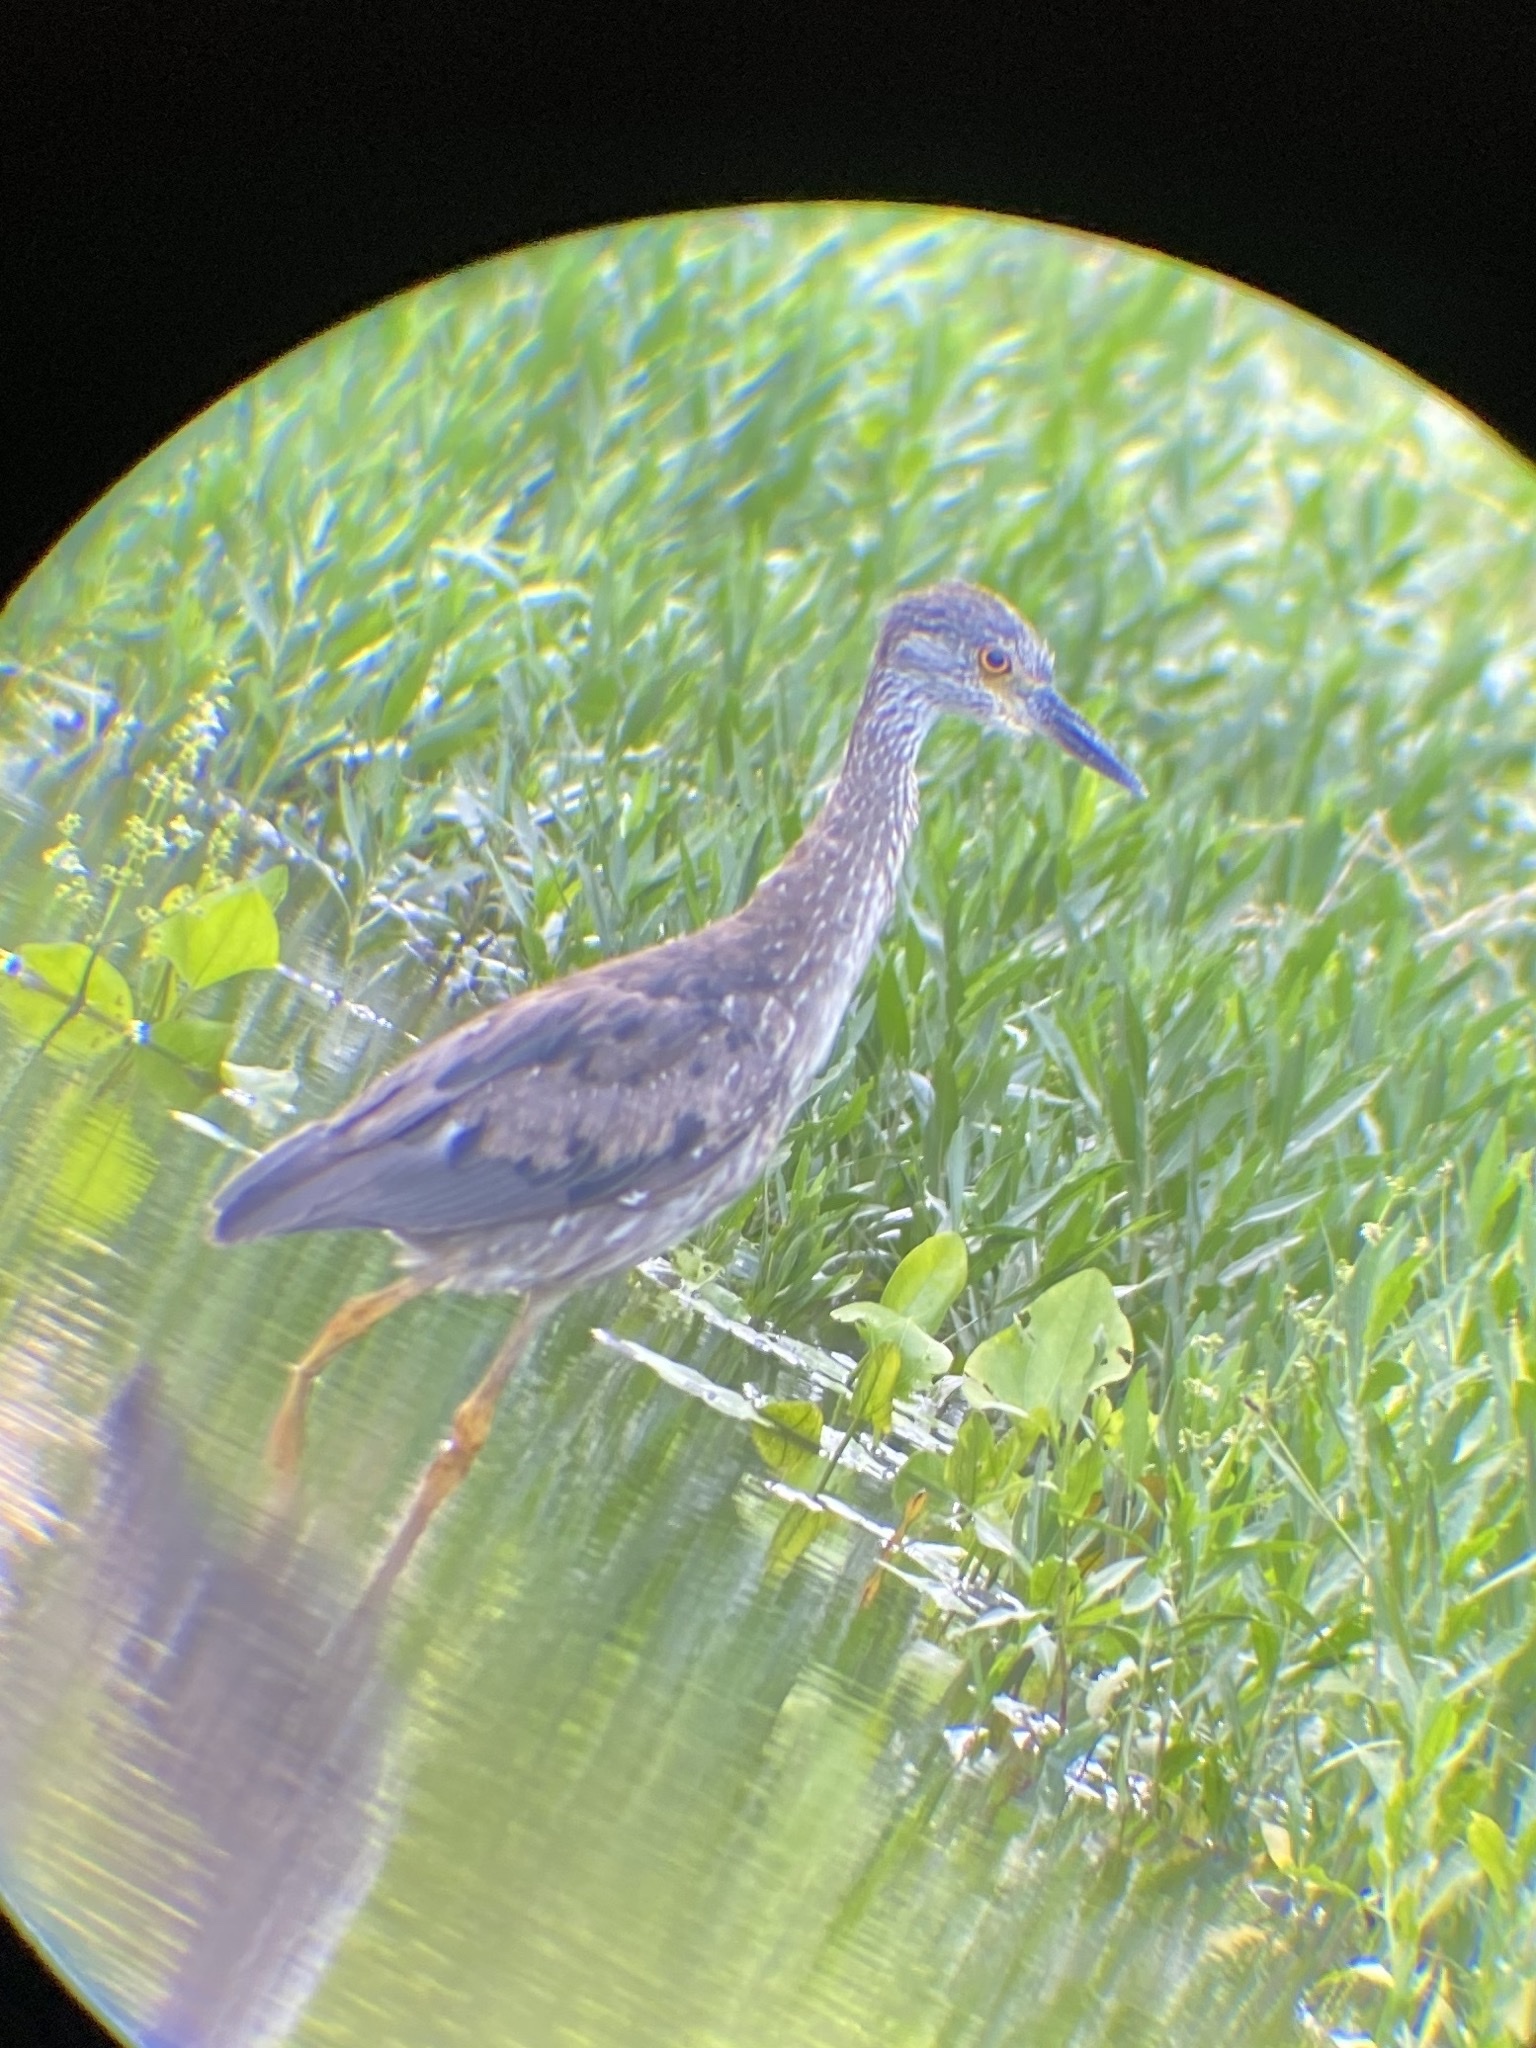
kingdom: Animalia
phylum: Chordata
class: Aves
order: Pelecaniformes
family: Ardeidae
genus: Nyctanassa
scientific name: Nyctanassa violacea
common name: Yellow-crowned night heron
